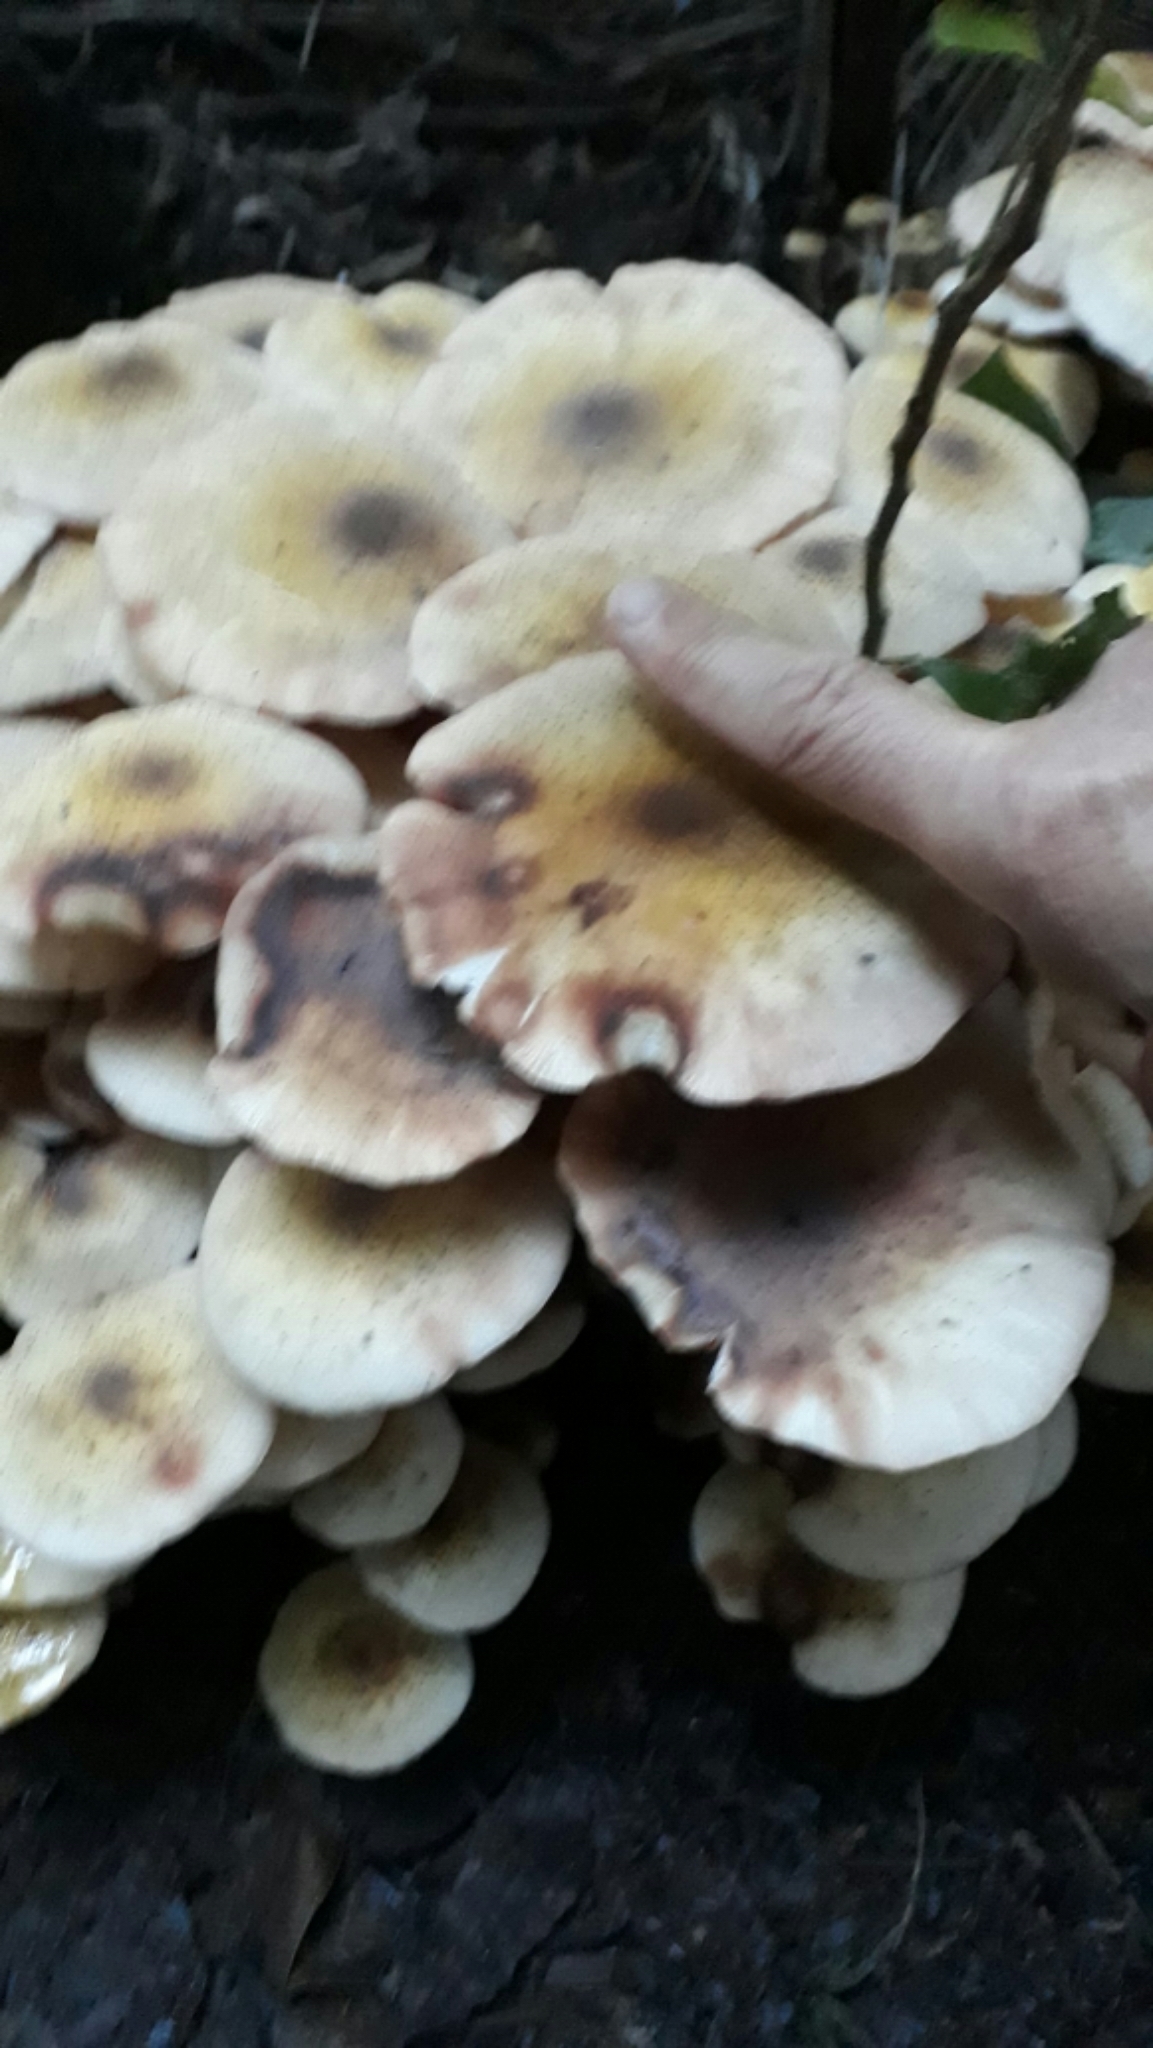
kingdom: Fungi
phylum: Basidiomycota
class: Agaricomycetes
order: Agaricales
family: Physalacriaceae
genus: Armillaria
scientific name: Armillaria limonea
